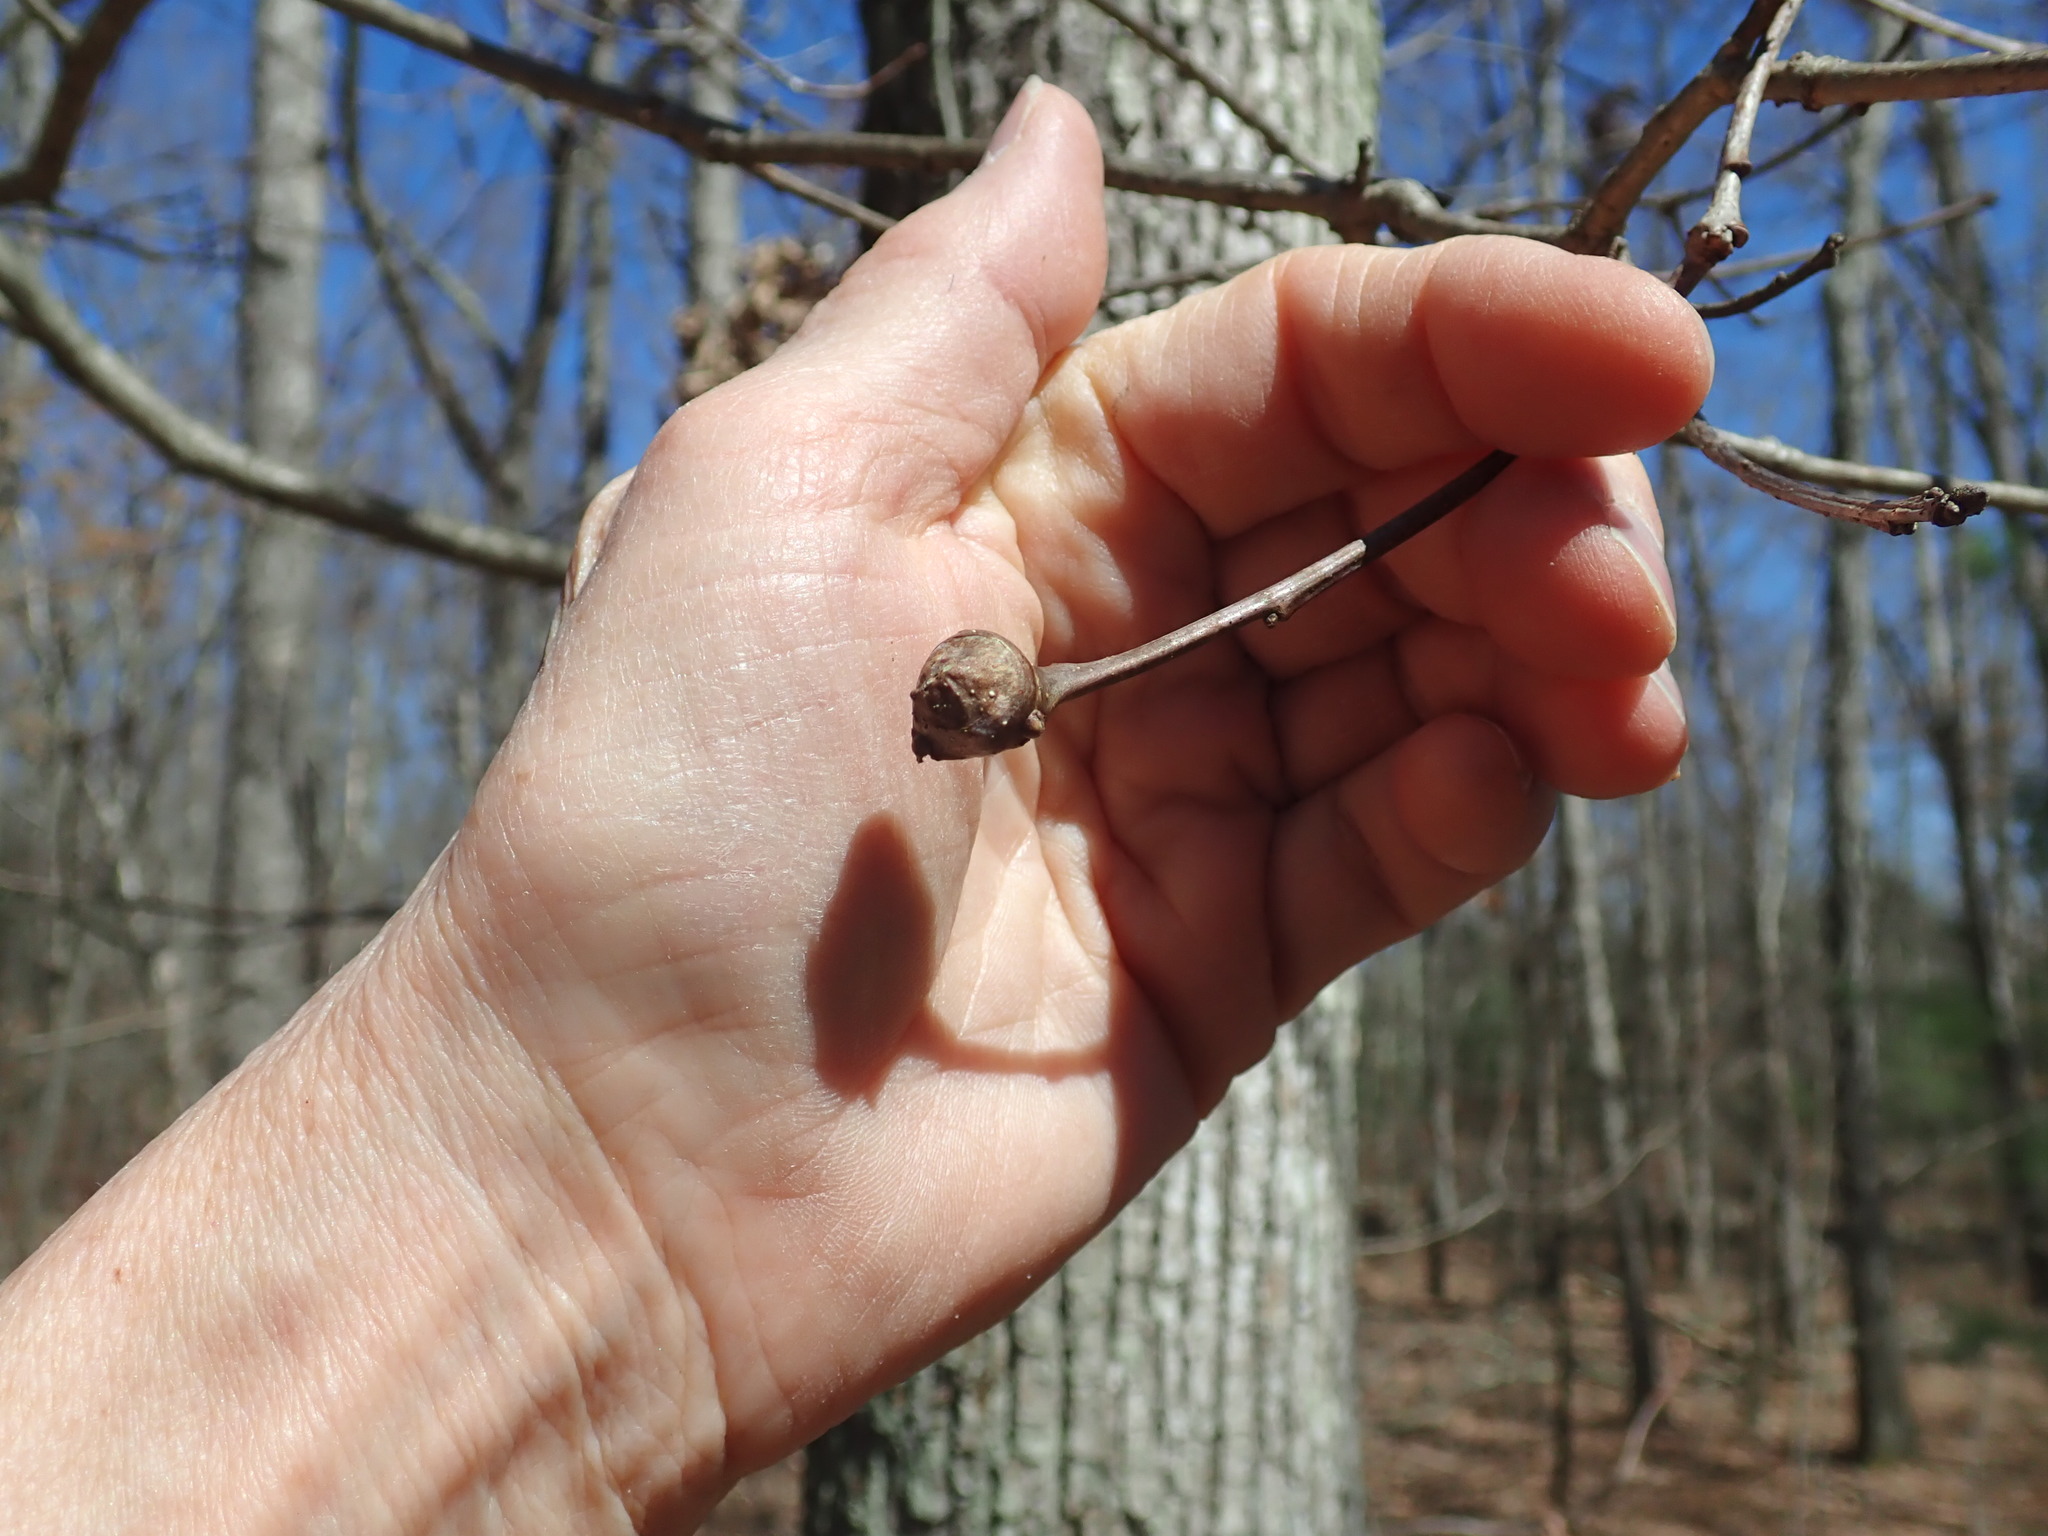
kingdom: Animalia
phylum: Arthropoda
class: Insecta
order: Hymenoptera
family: Cynipidae
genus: Callirhytis
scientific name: Callirhytis clavula
